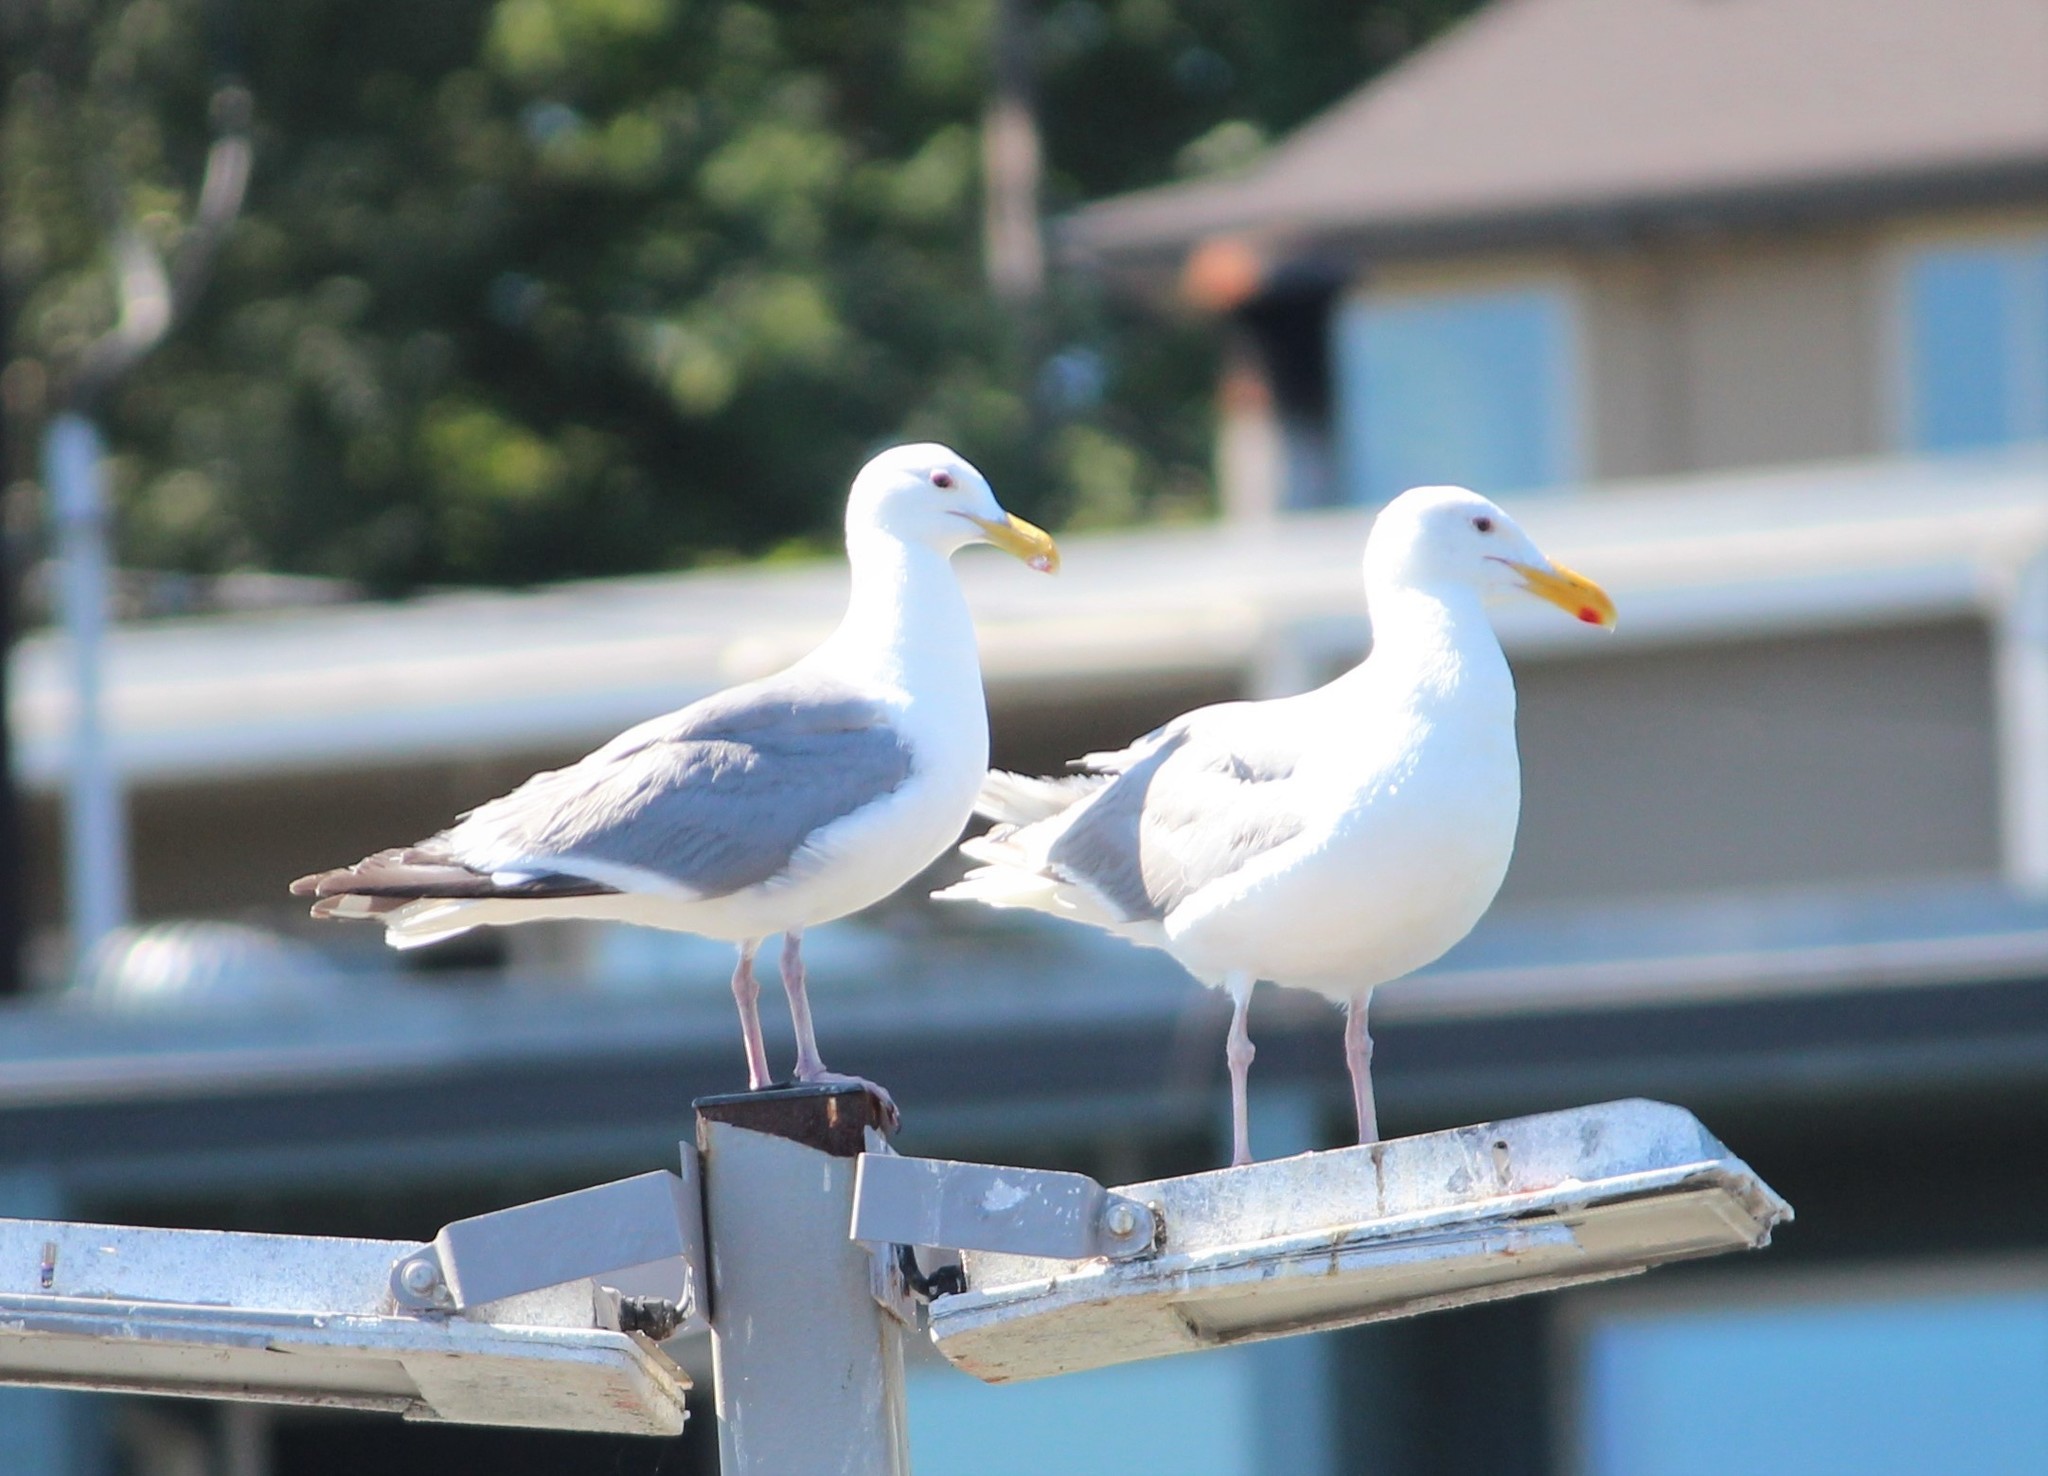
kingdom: Animalia
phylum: Chordata
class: Aves
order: Charadriiformes
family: Laridae
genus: Larus
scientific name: Larus
